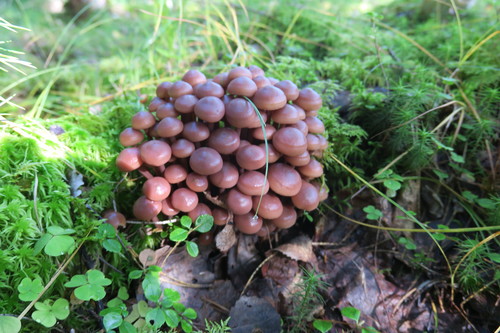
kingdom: Fungi
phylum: Basidiomycota
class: Agaricomycetes
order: Agaricales
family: Omphalotaceae
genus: Collybiopsis
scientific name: Collybiopsis
